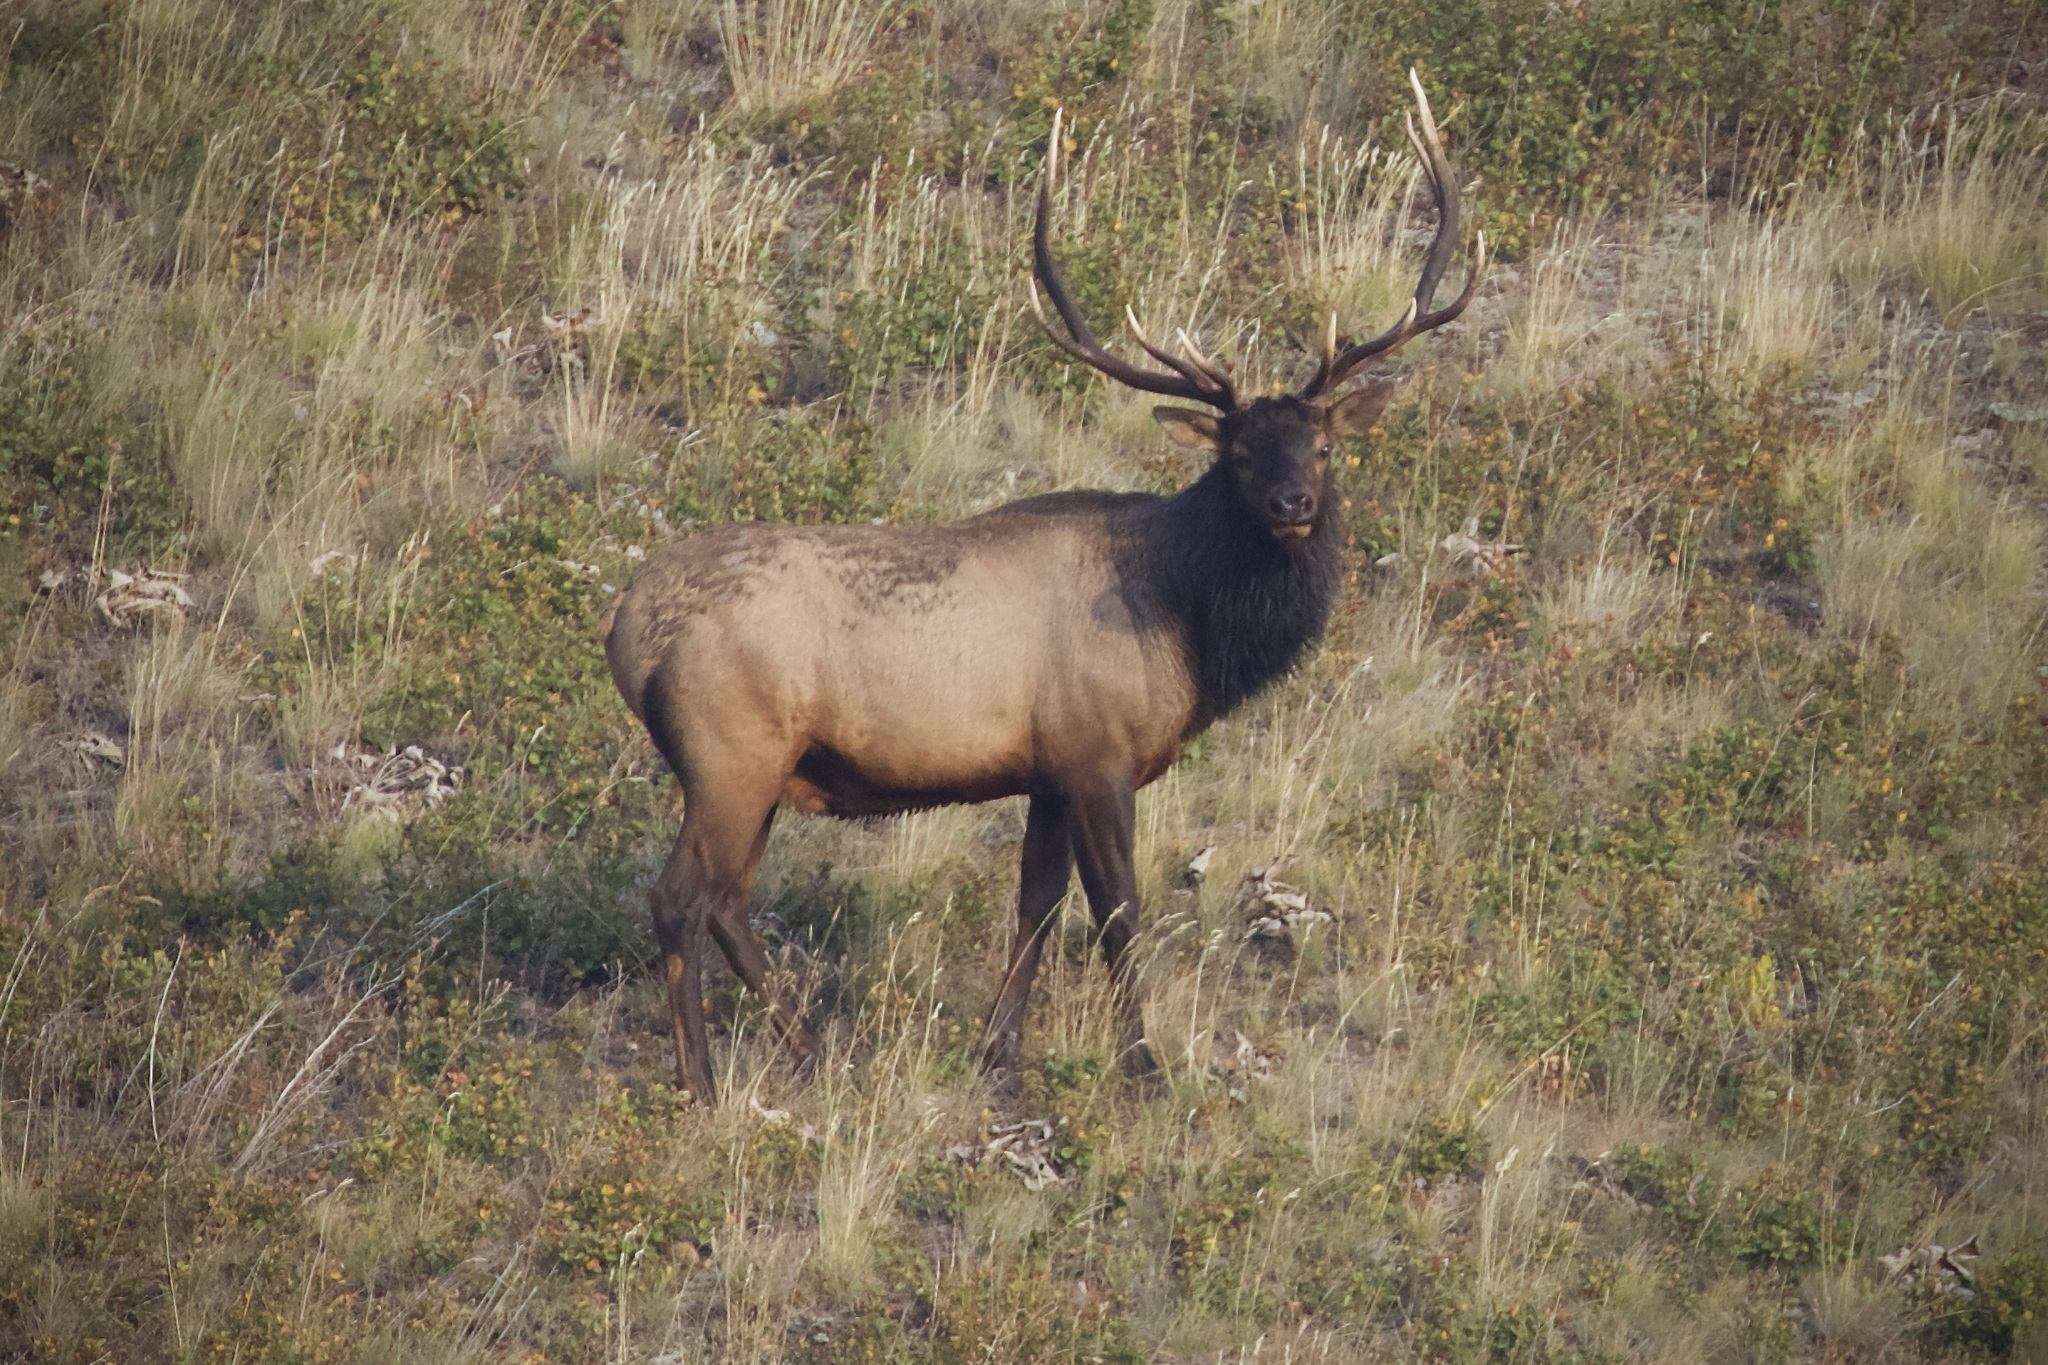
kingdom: Animalia
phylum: Chordata
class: Mammalia
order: Artiodactyla
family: Cervidae
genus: Cervus
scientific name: Cervus elaphus
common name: Red deer
